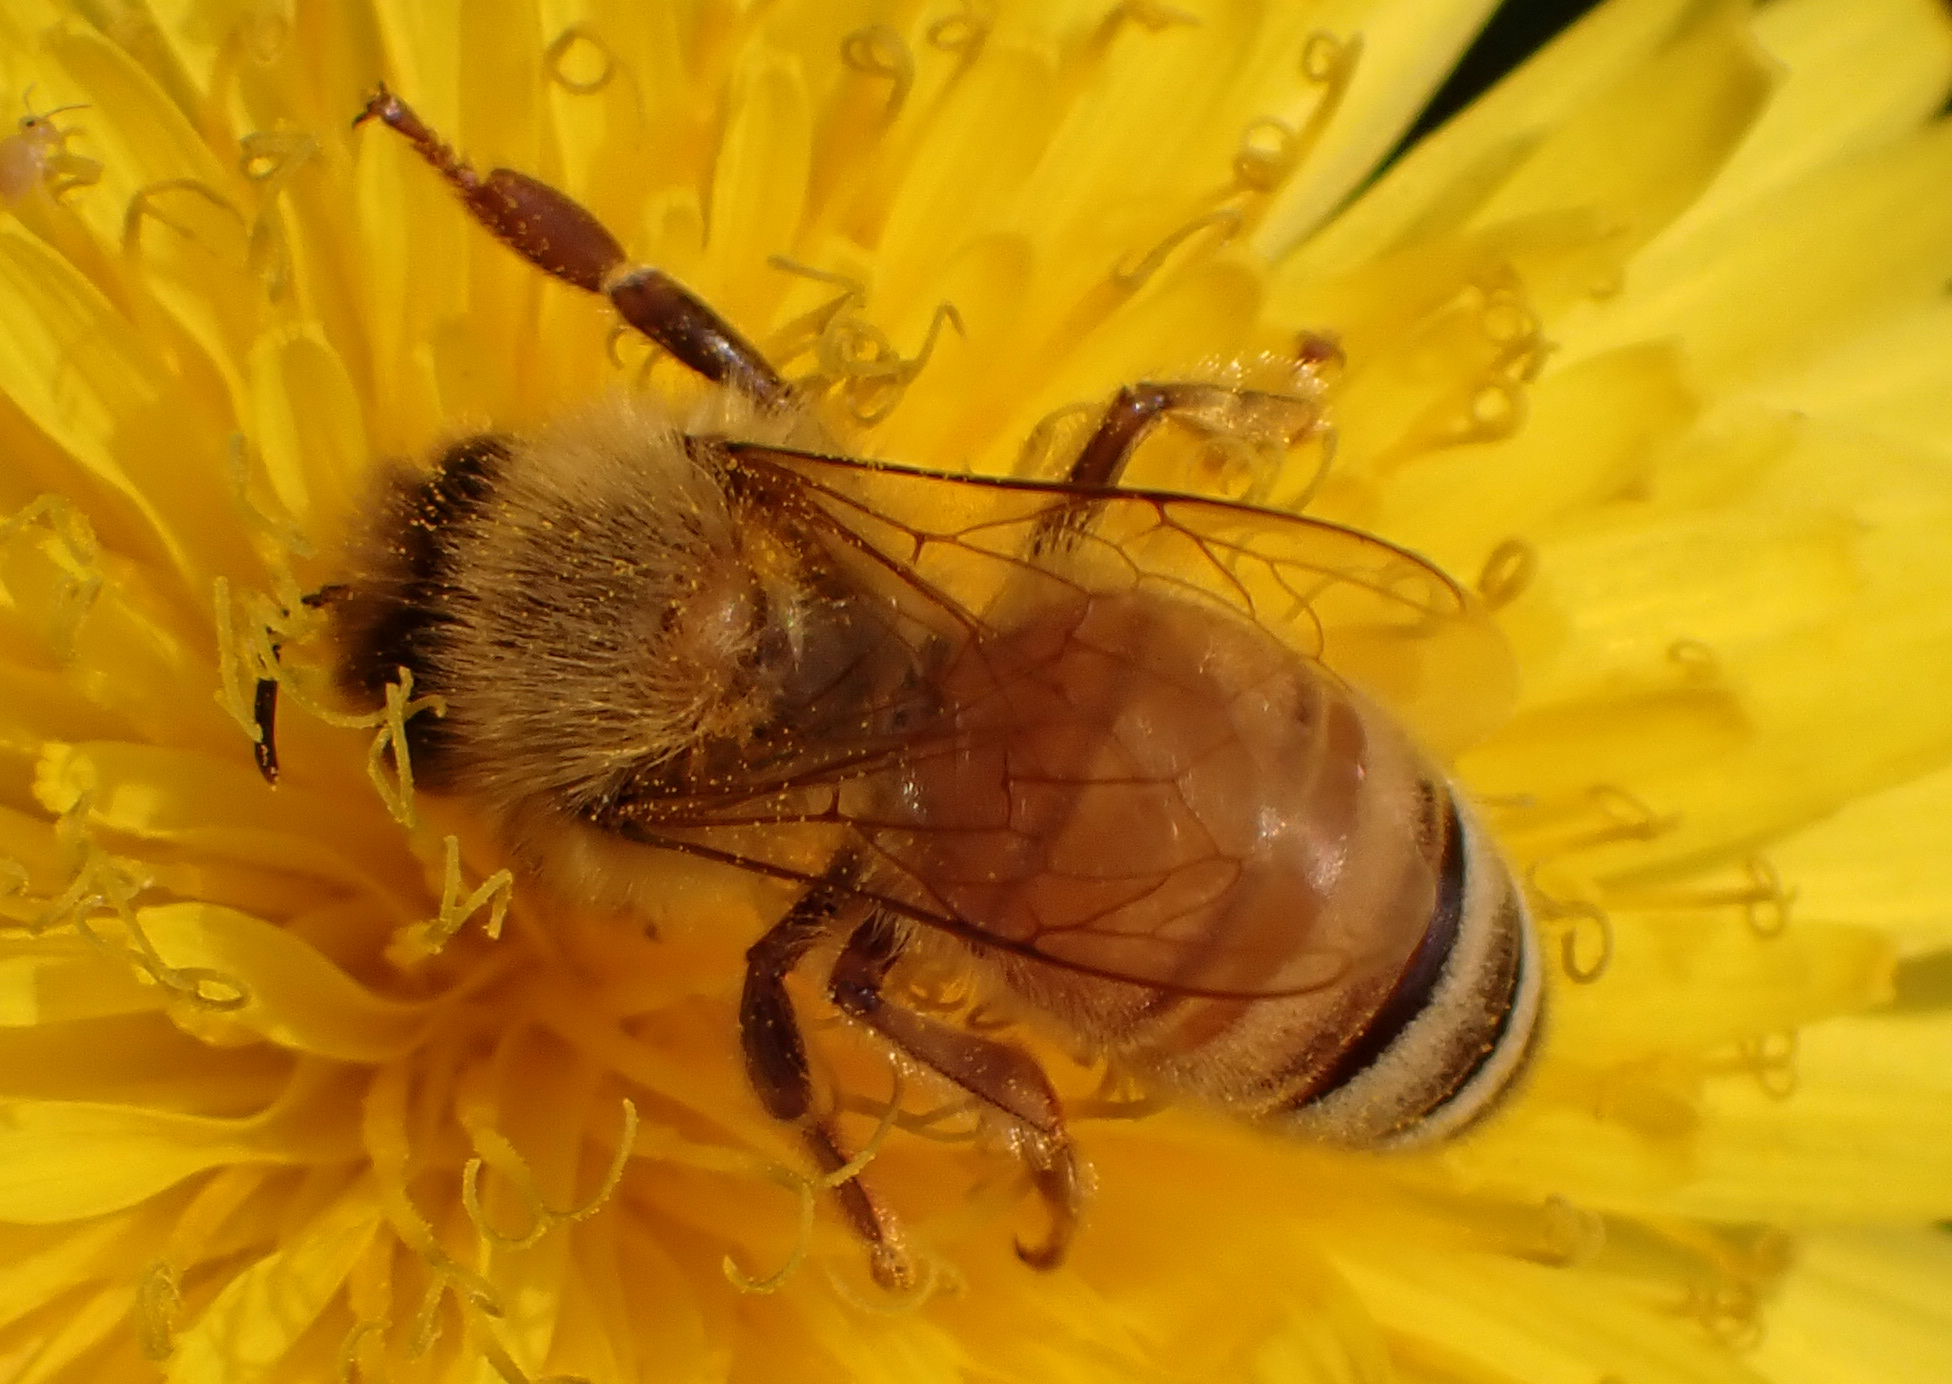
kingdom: Animalia
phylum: Arthropoda
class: Insecta
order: Hymenoptera
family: Apidae
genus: Apis
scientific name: Apis mellifera
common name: Honey bee
